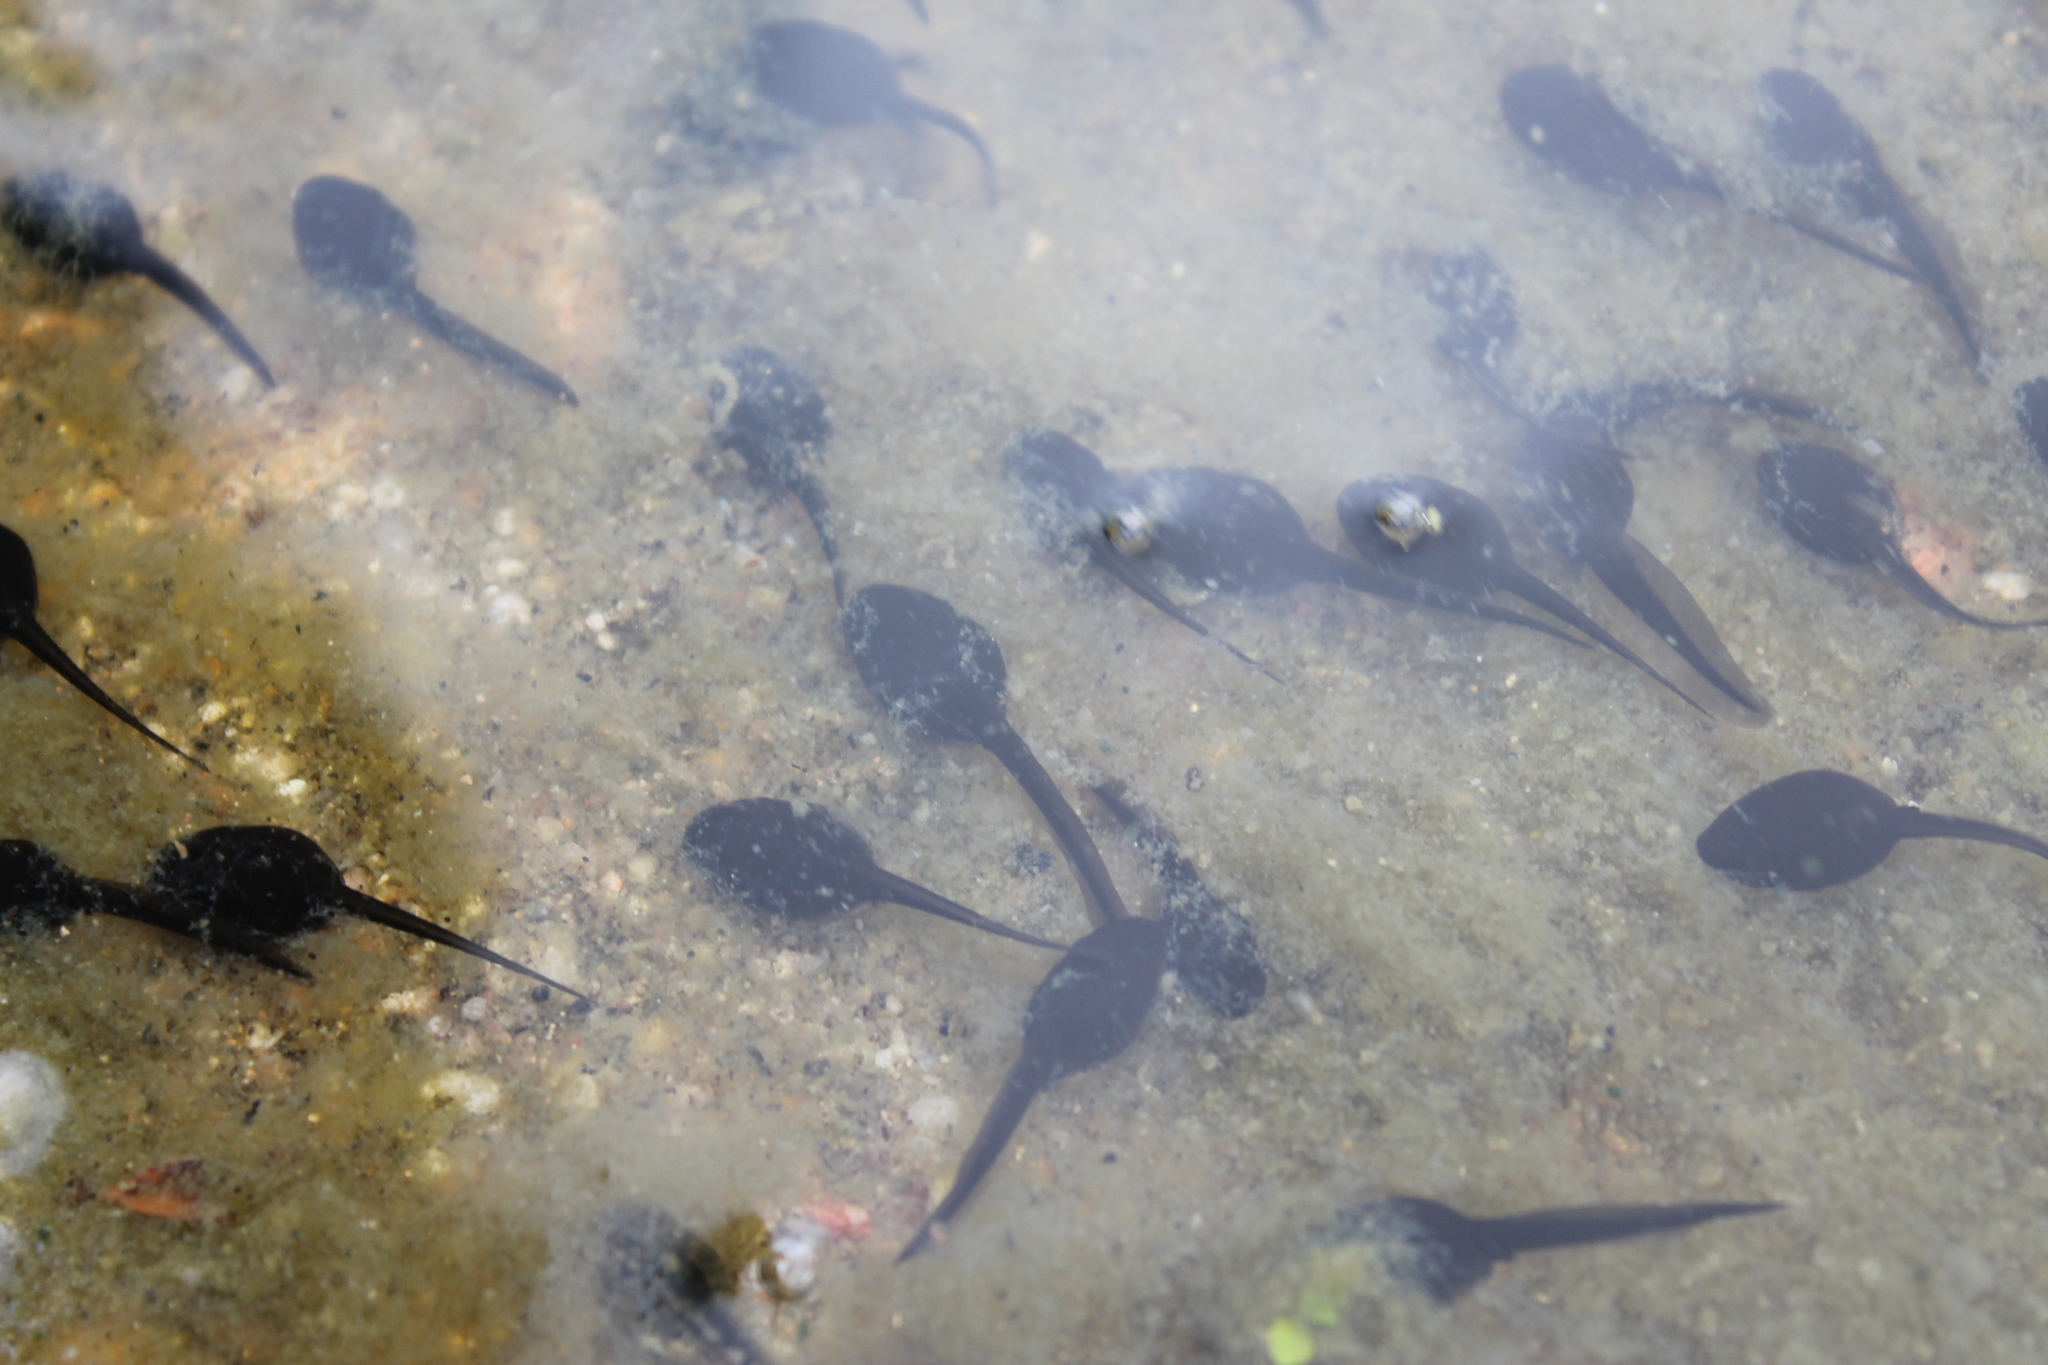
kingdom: Animalia
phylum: Chordata
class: Amphibia
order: Anura
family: Bufonidae
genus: Anaxyrus
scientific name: Anaxyrus boreas
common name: Western toad
